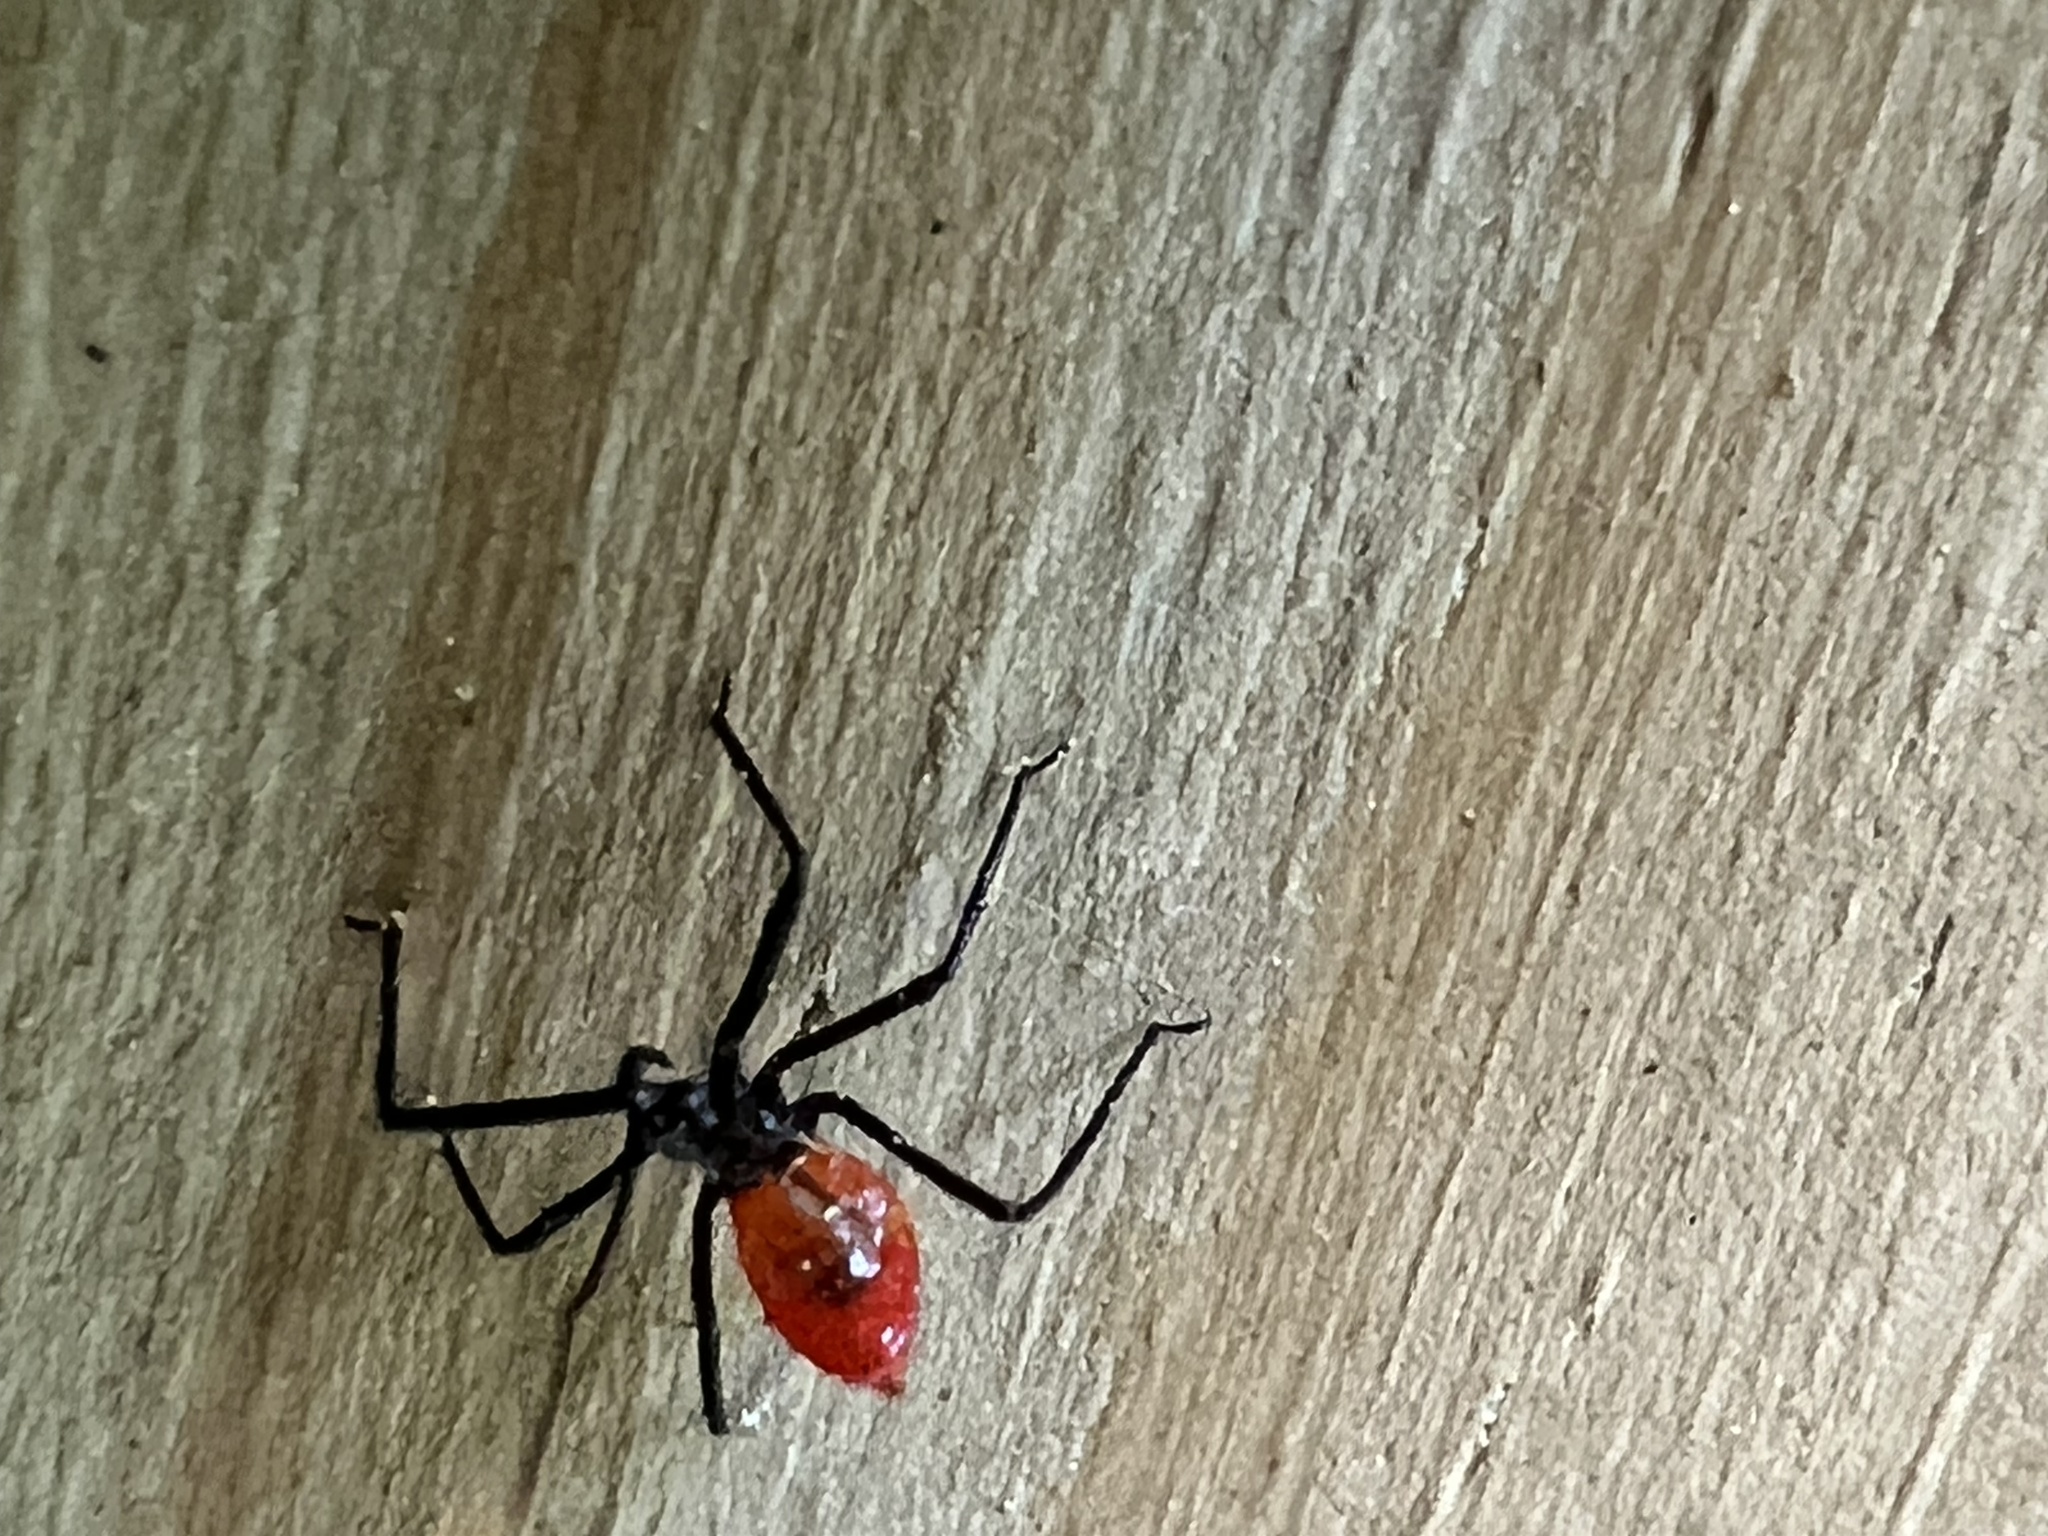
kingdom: Animalia
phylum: Arthropoda
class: Insecta
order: Hemiptera
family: Reduviidae
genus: Arilus
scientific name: Arilus cristatus
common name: North american wheel bug
